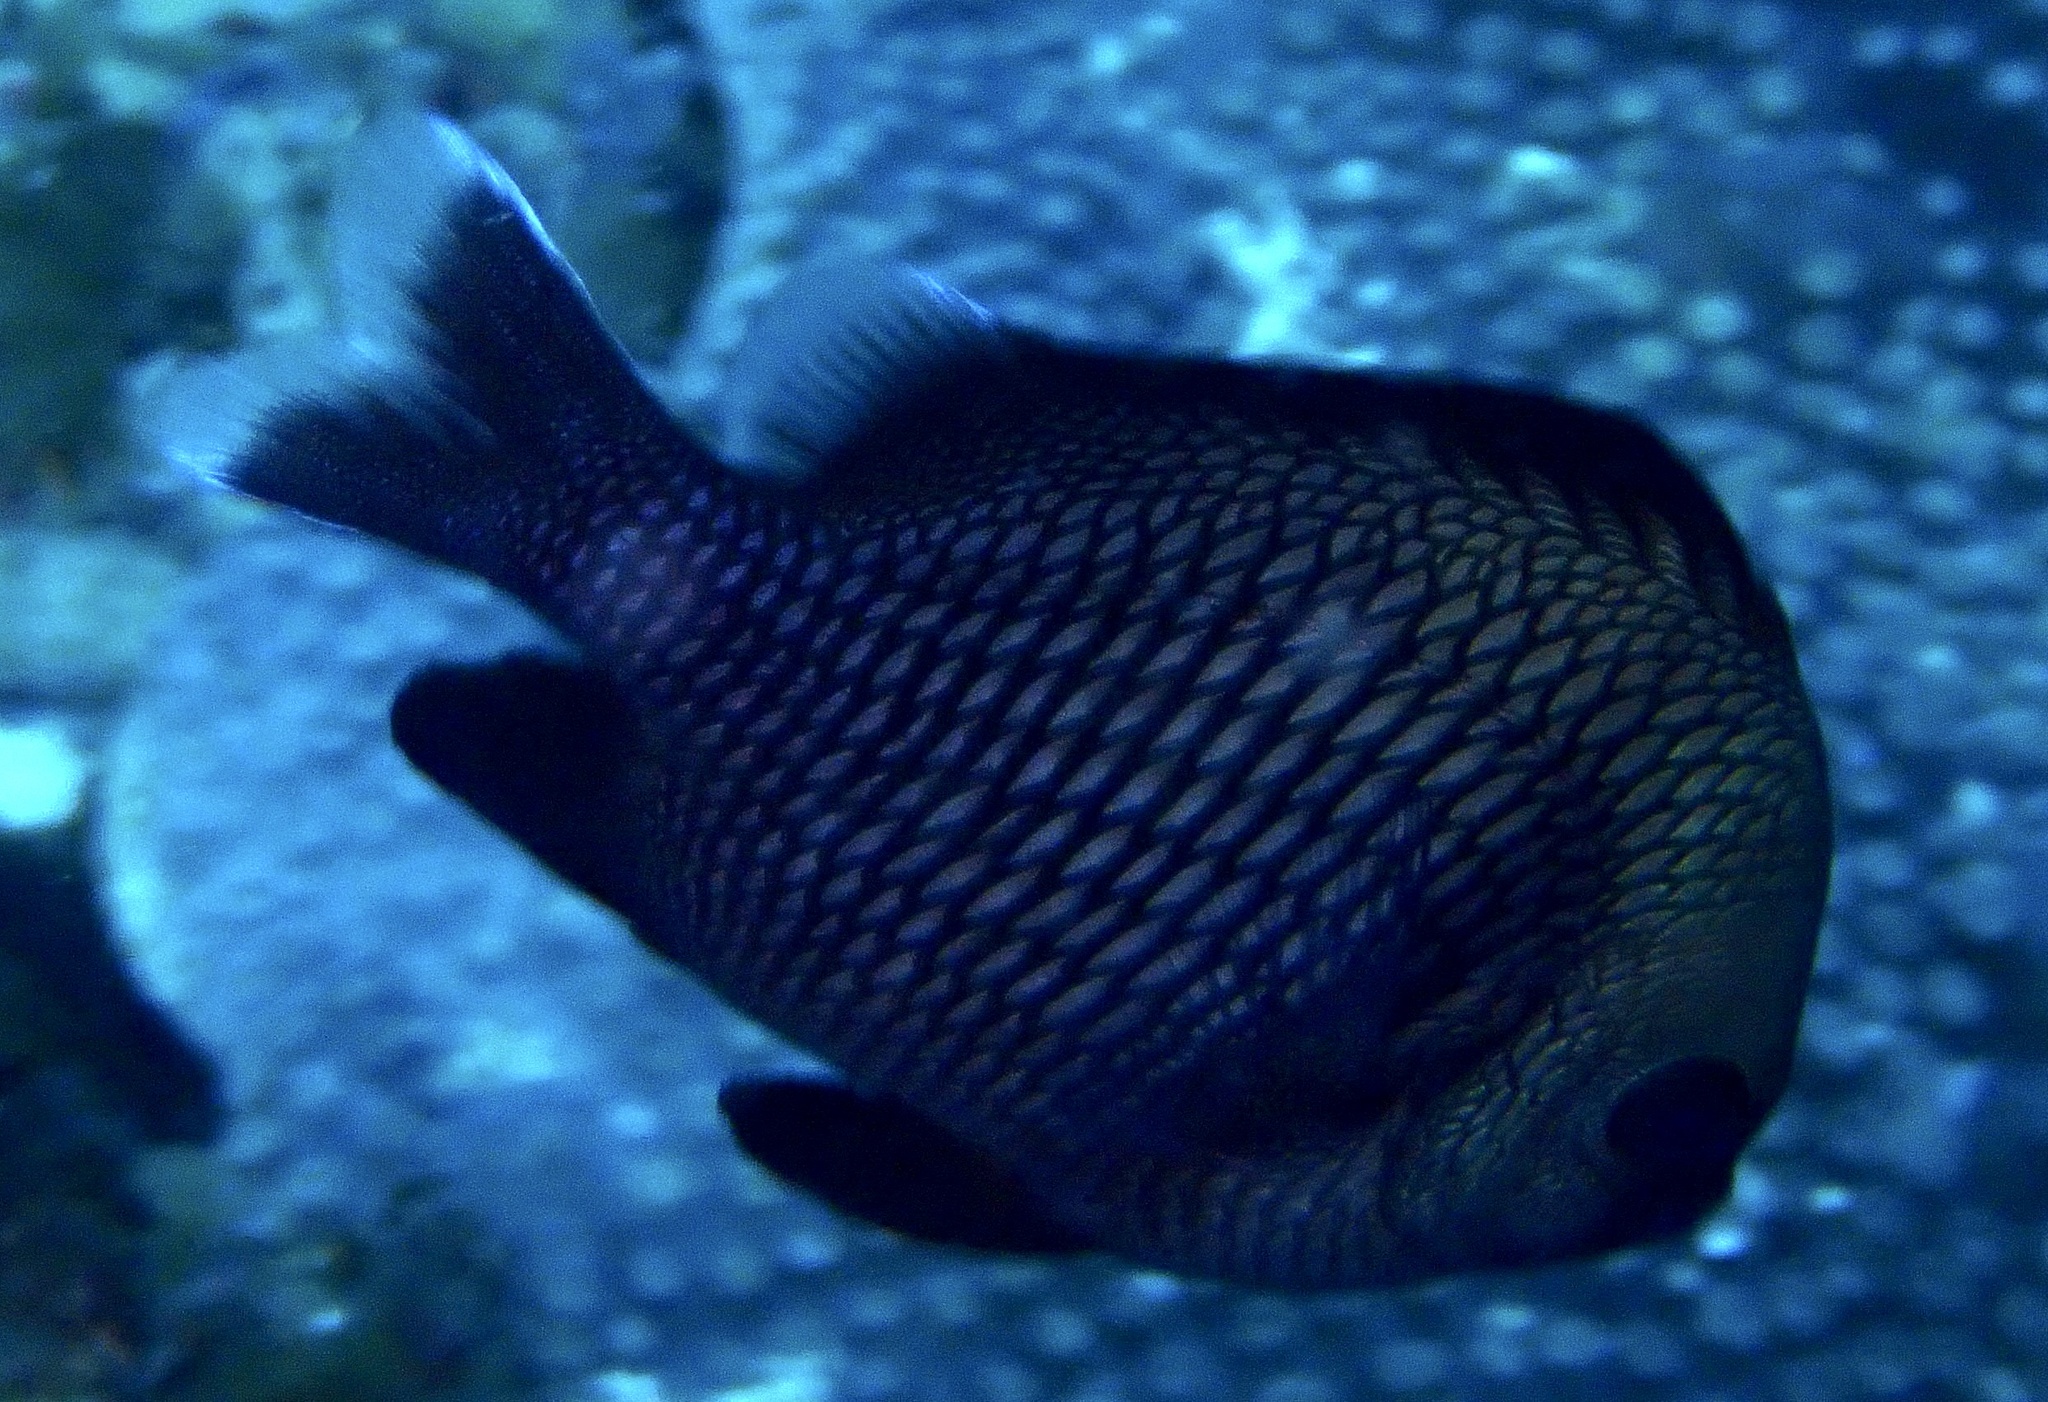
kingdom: Animalia
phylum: Chordata
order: Perciformes
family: Pomacentridae
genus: Dascyllus
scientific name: Dascyllus trimaculatus
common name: Threespot dascyllus
